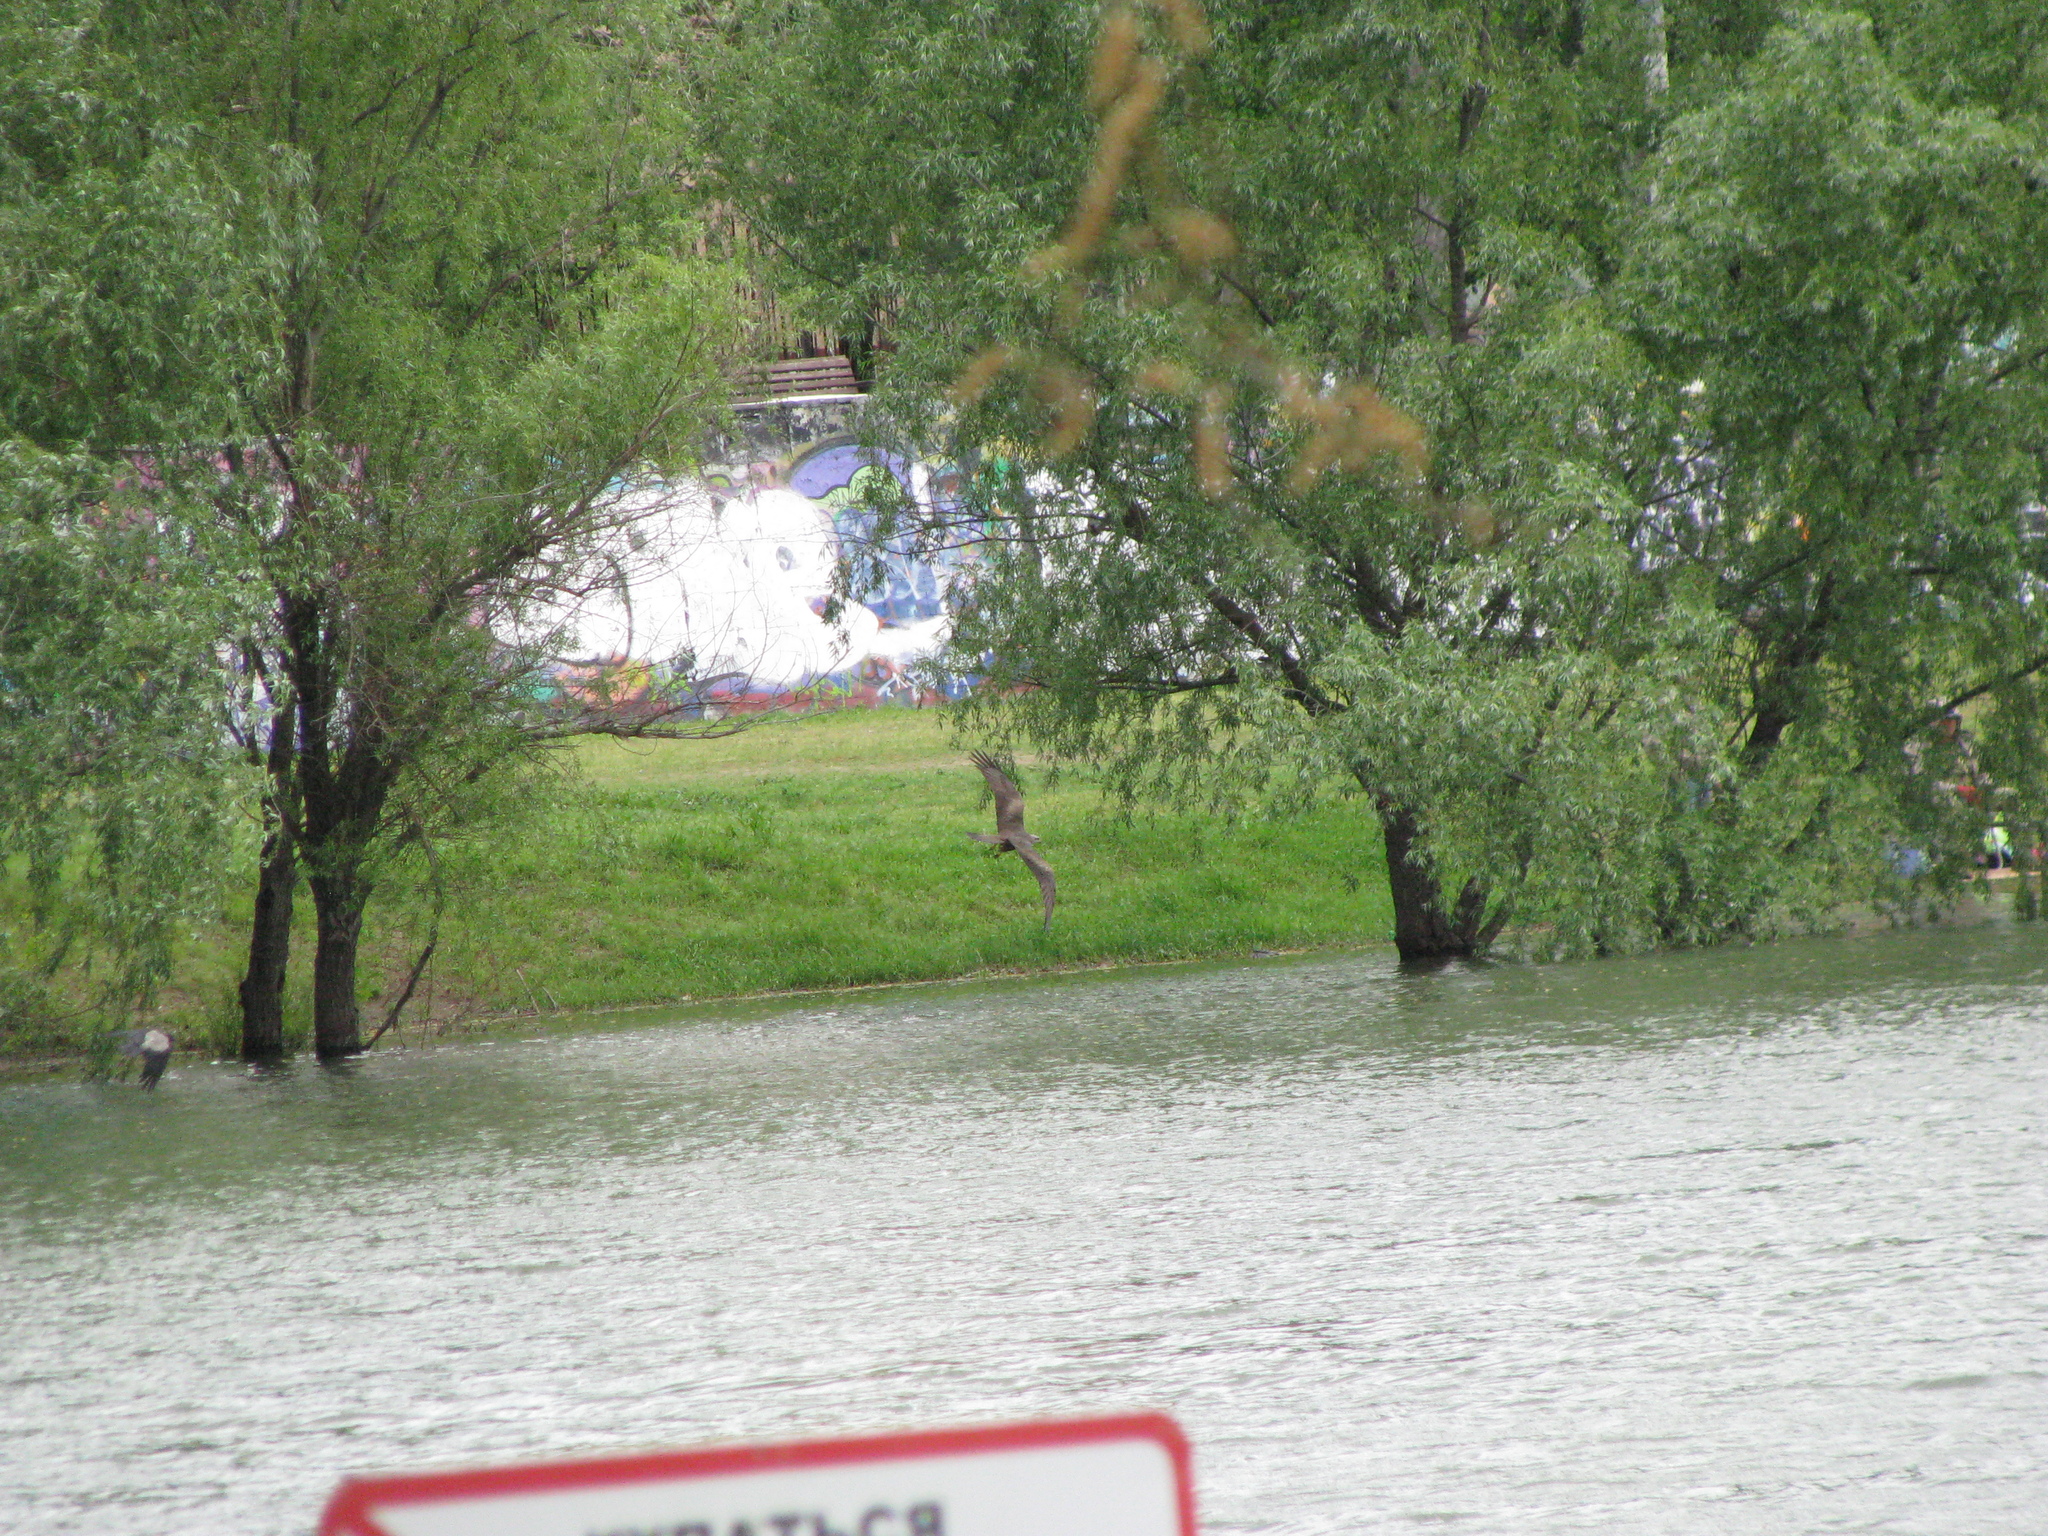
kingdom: Animalia
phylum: Chordata
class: Aves
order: Accipitriformes
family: Accipitridae
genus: Milvus
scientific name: Milvus migrans
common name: Black kite
